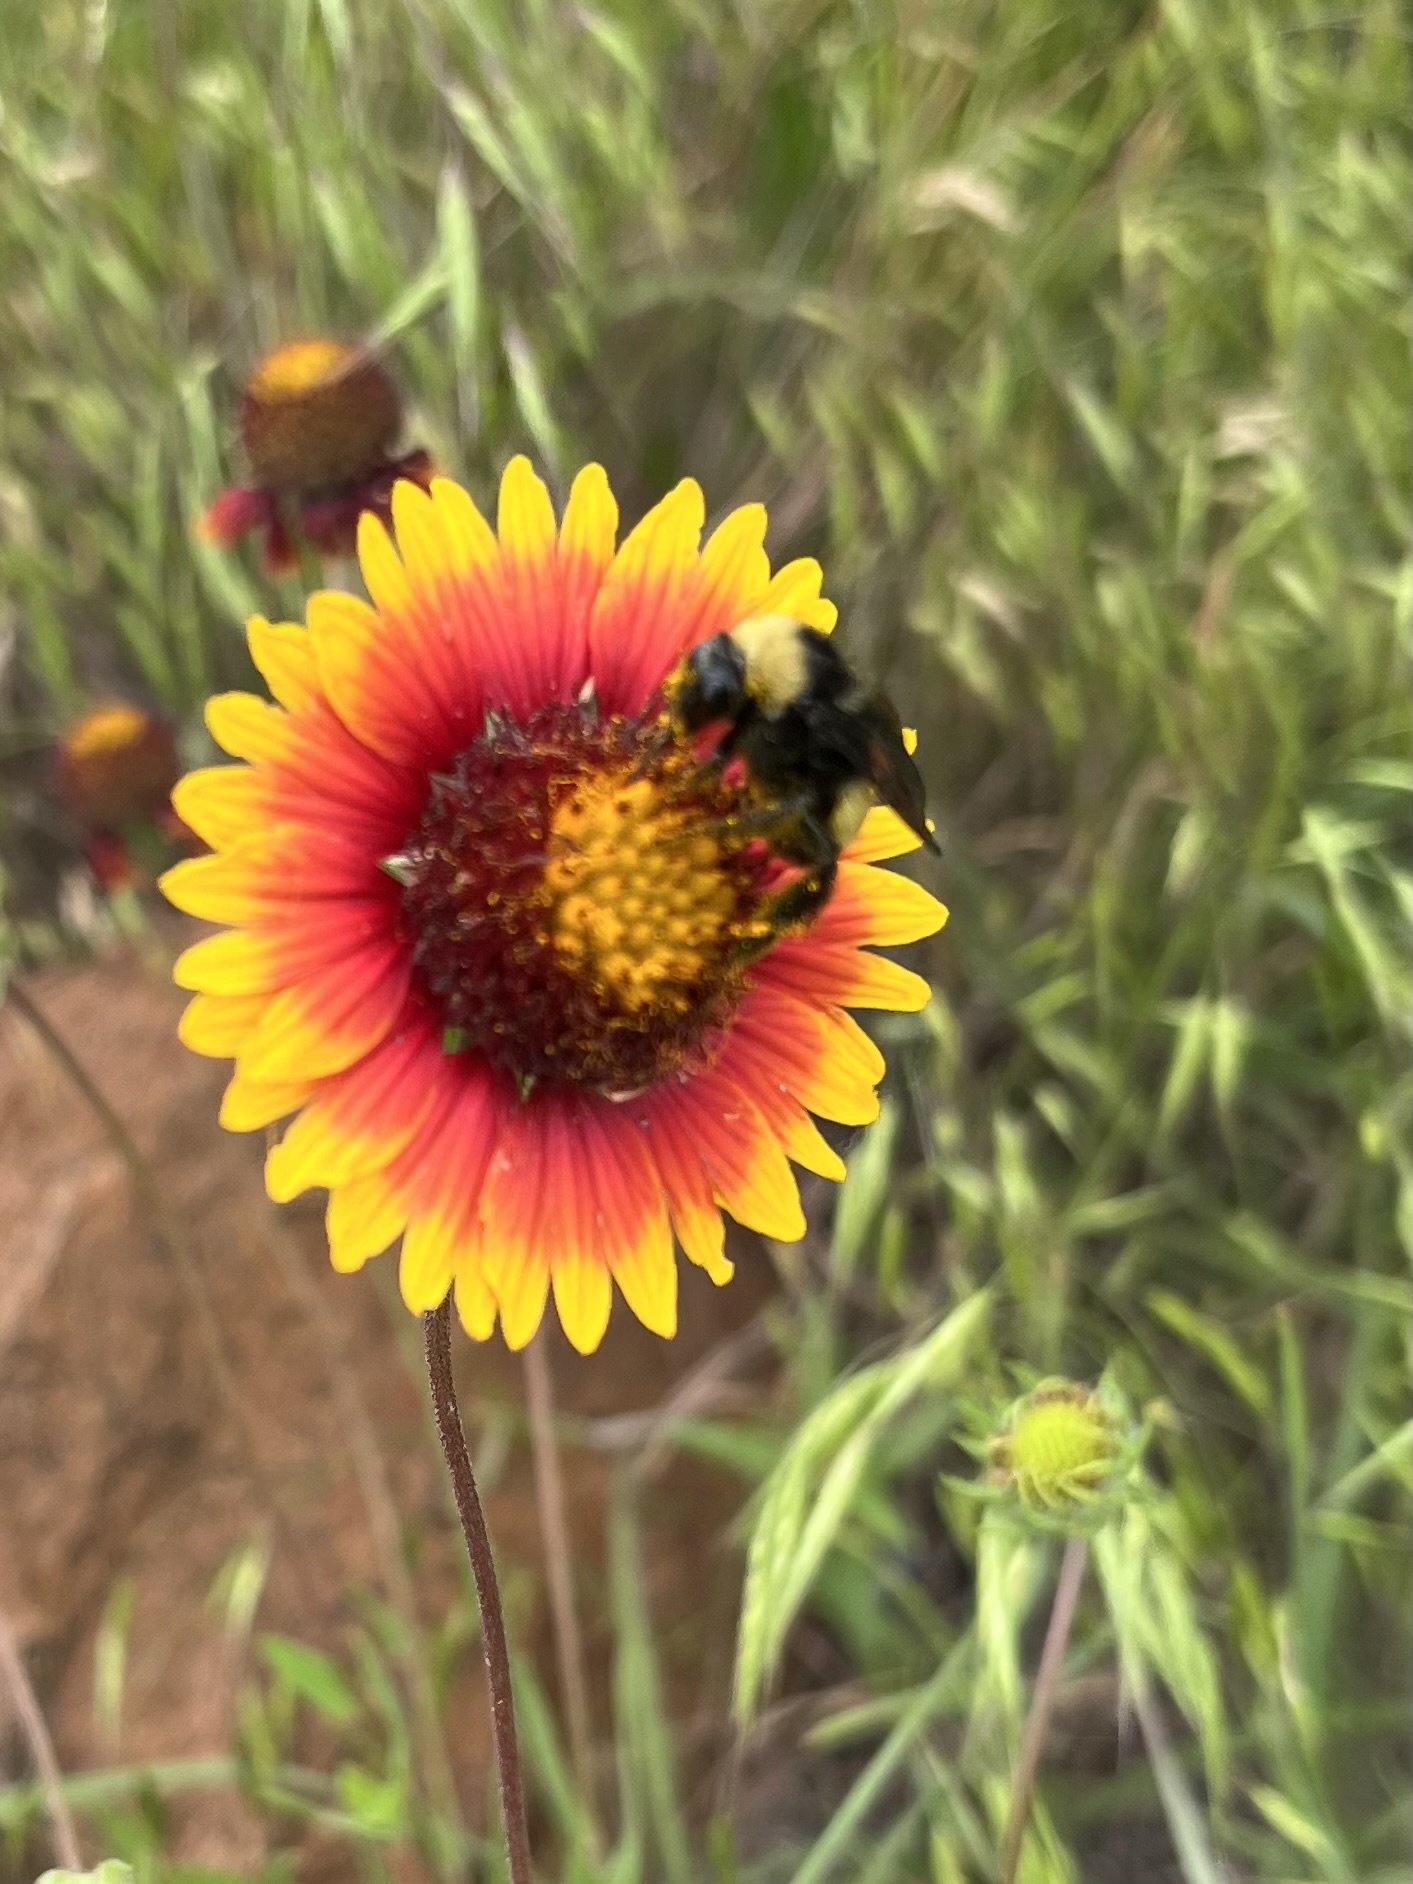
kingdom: Animalia
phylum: Arthropoda
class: Insecta
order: Hymenoptera
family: Apidae
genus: Bombus
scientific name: Bombus pensylvanicus
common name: Bumble bee
